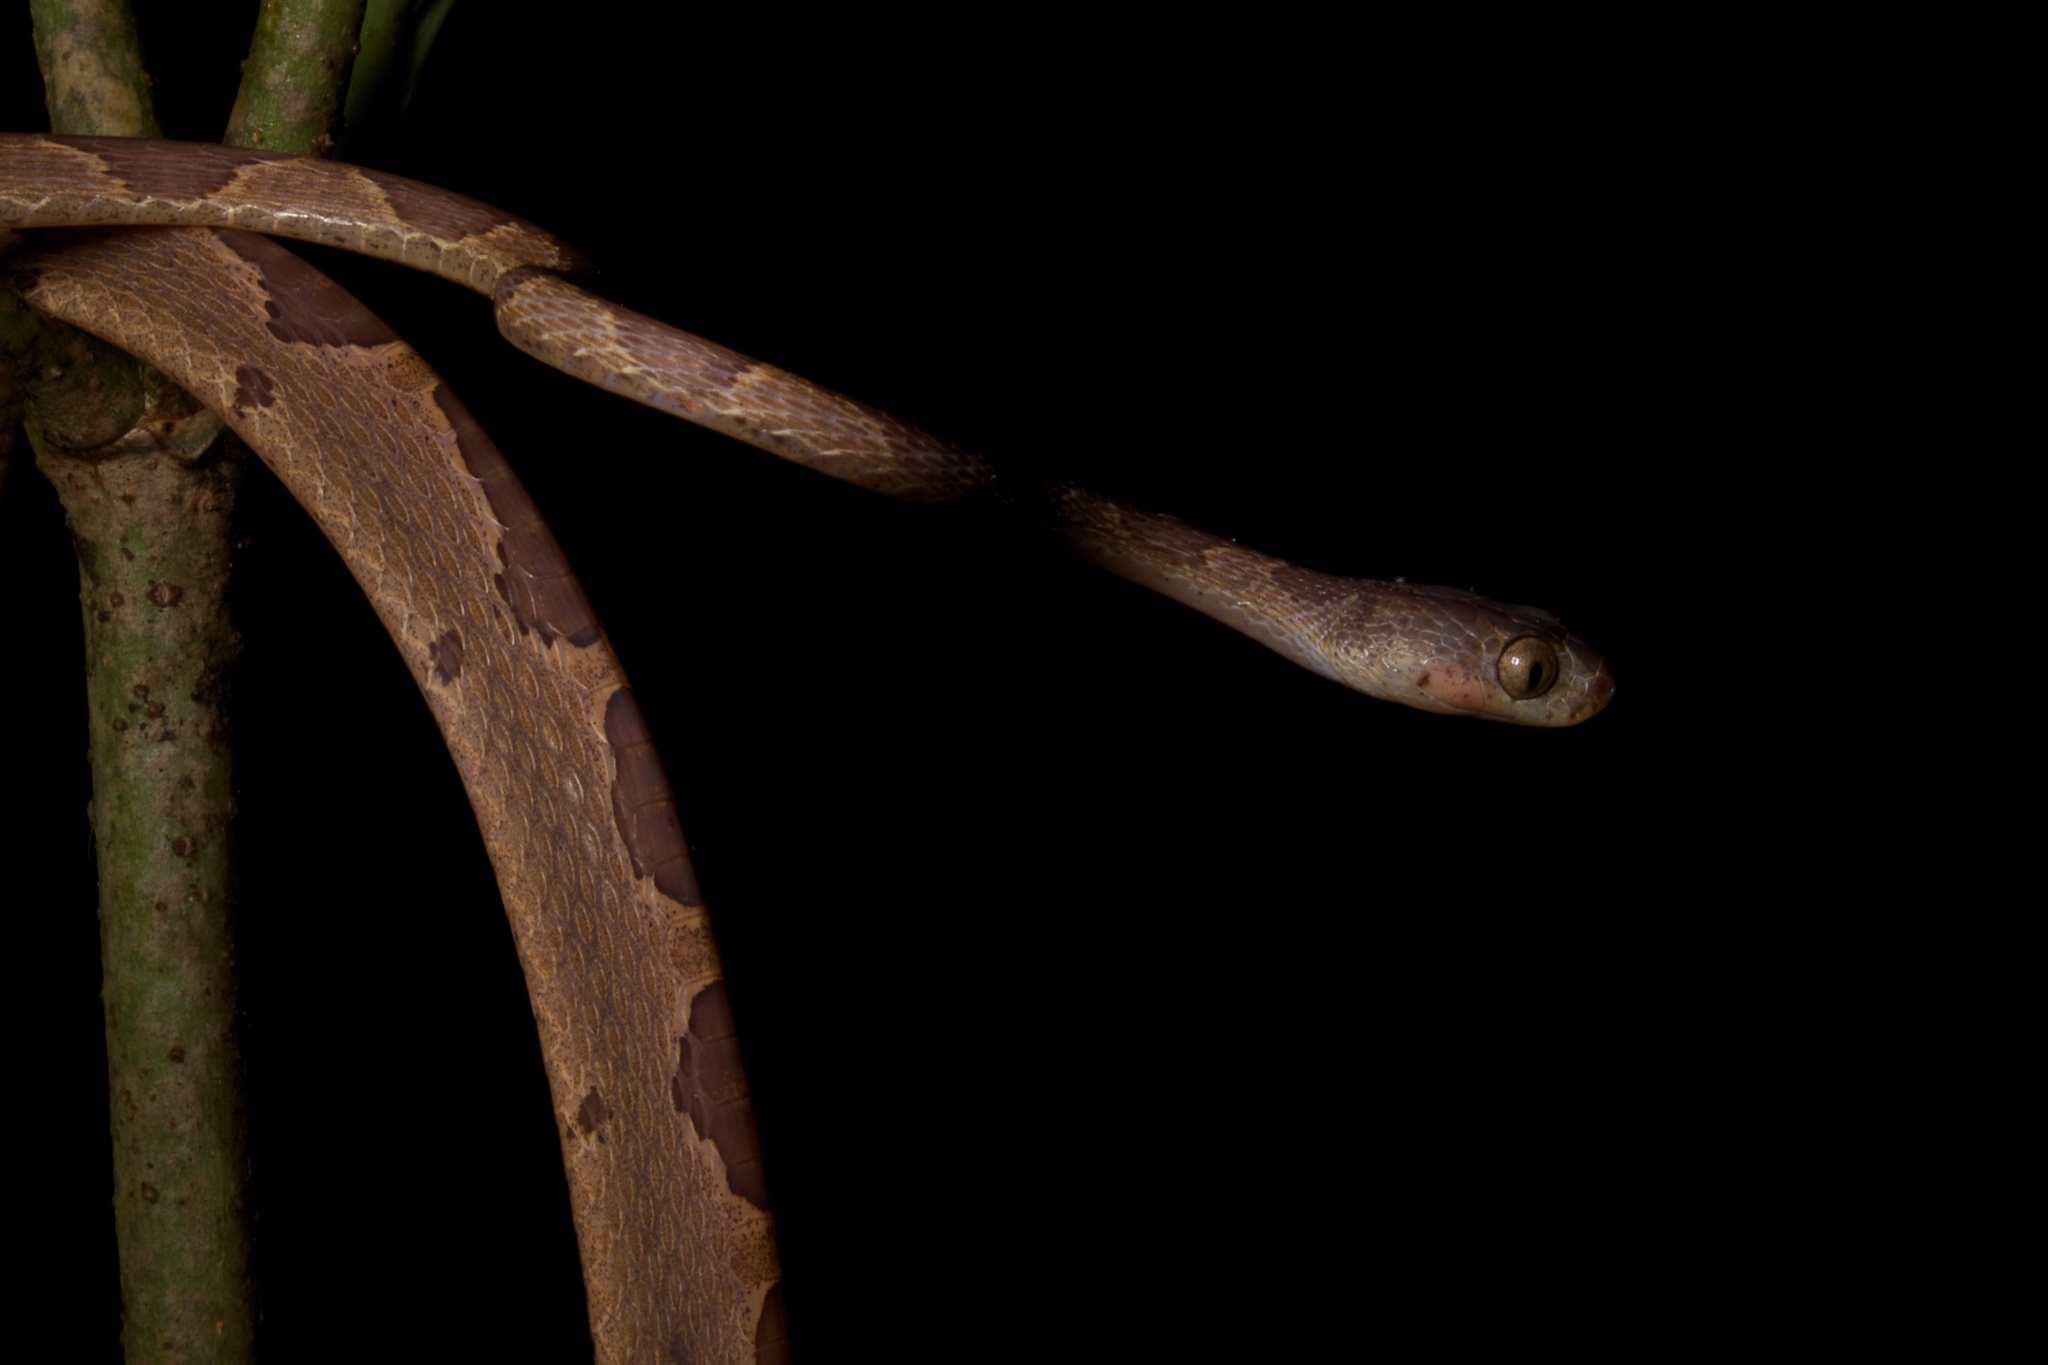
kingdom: Animalia
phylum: Chordata
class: Squamata
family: Colubridae
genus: Imantodes
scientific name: Imantodes cenchoa
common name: Blunthead tree snake
